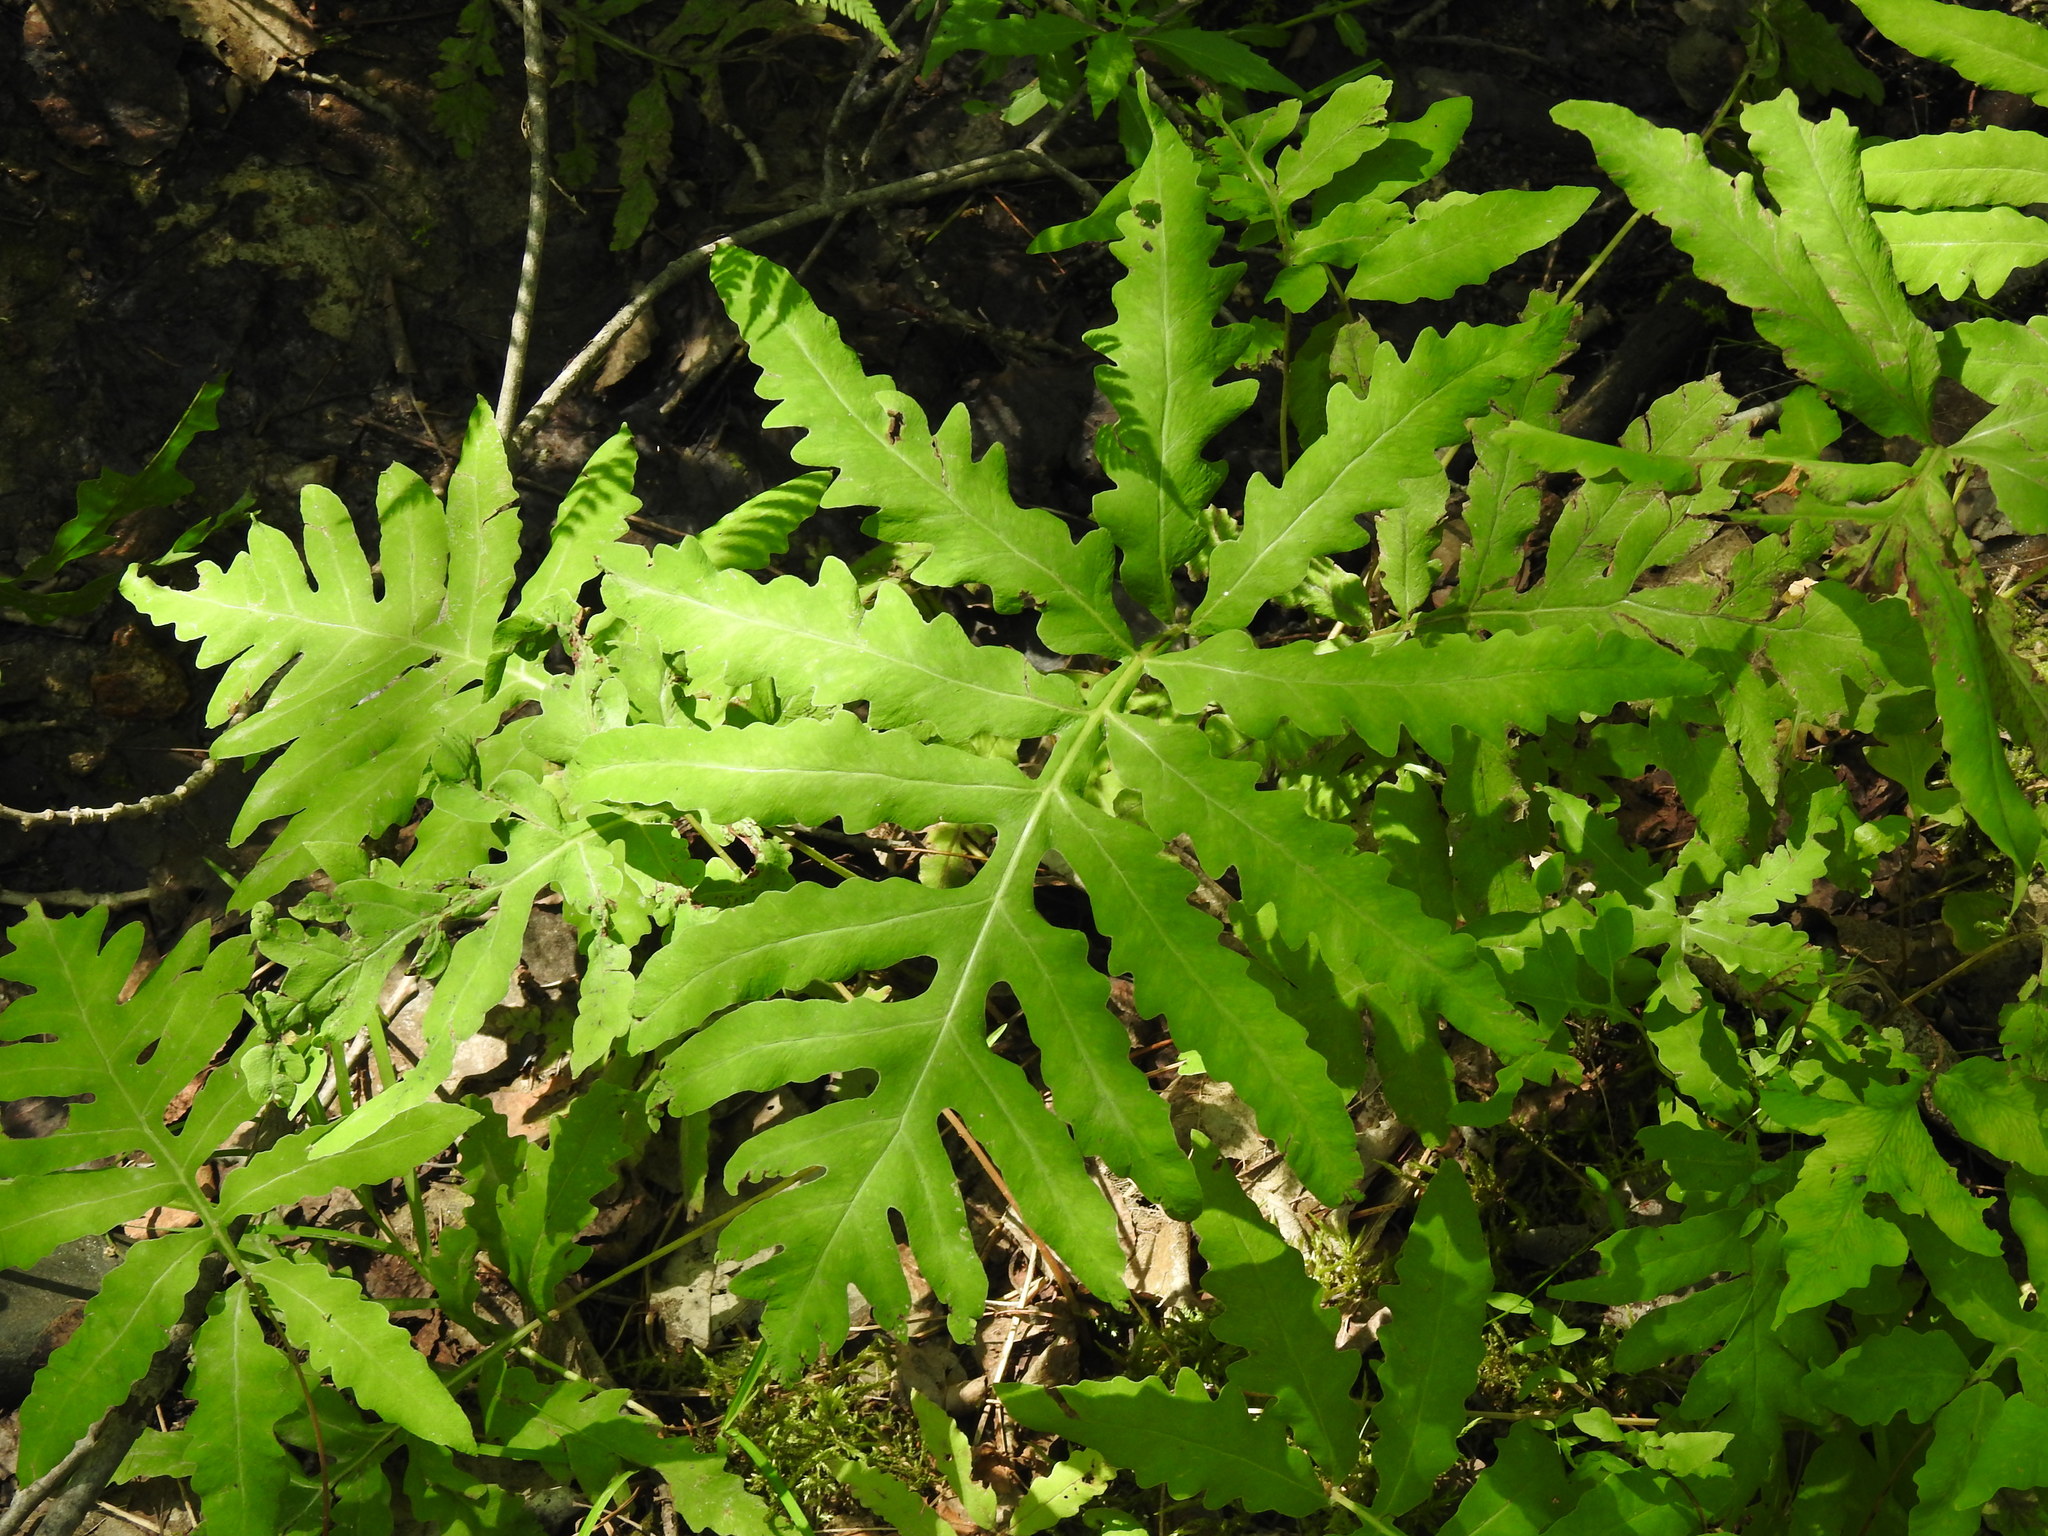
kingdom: Plantae
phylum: Tracheophyta
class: Polypodiopsida
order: Polypodiales
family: Onocleaceae
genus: Onoclea
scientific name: Onoclea sensibilis
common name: Sensitive fern
